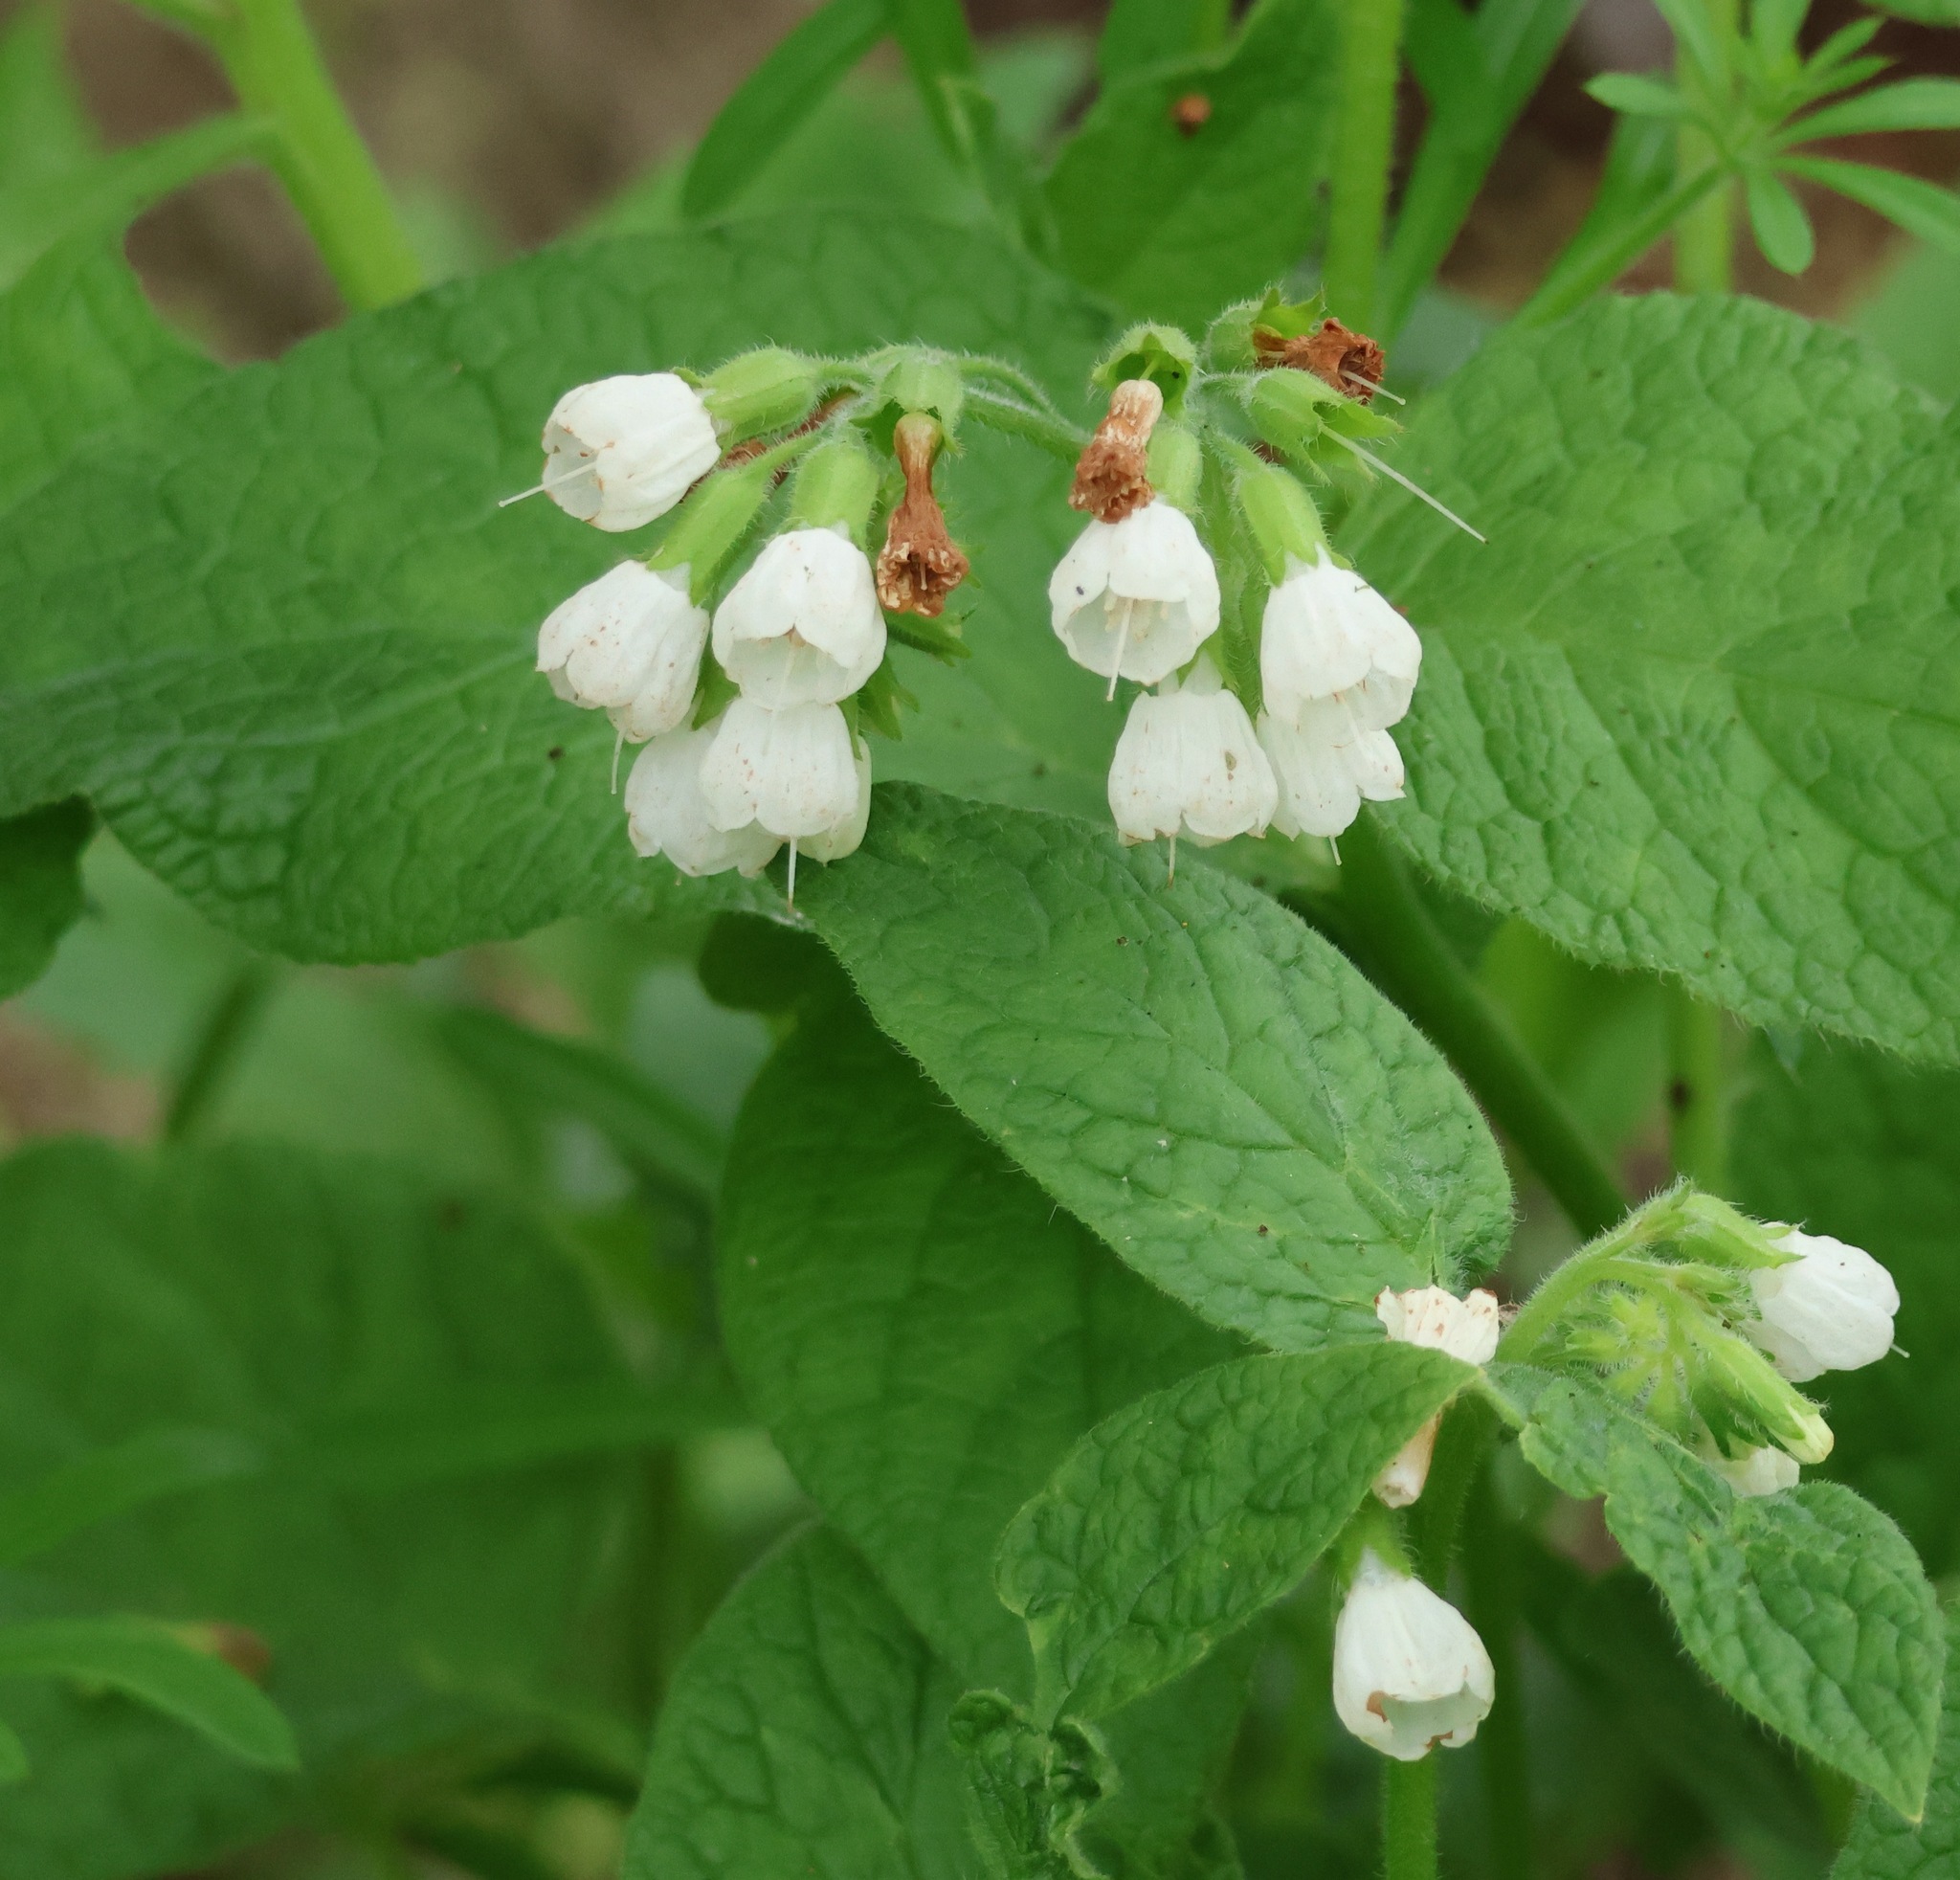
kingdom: Plantae
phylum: Tracheophyta
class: Magnoliopsida
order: Boraginales
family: Boraginaceae
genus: Symphytum
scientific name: Symphytum orientale
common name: White comfrey
